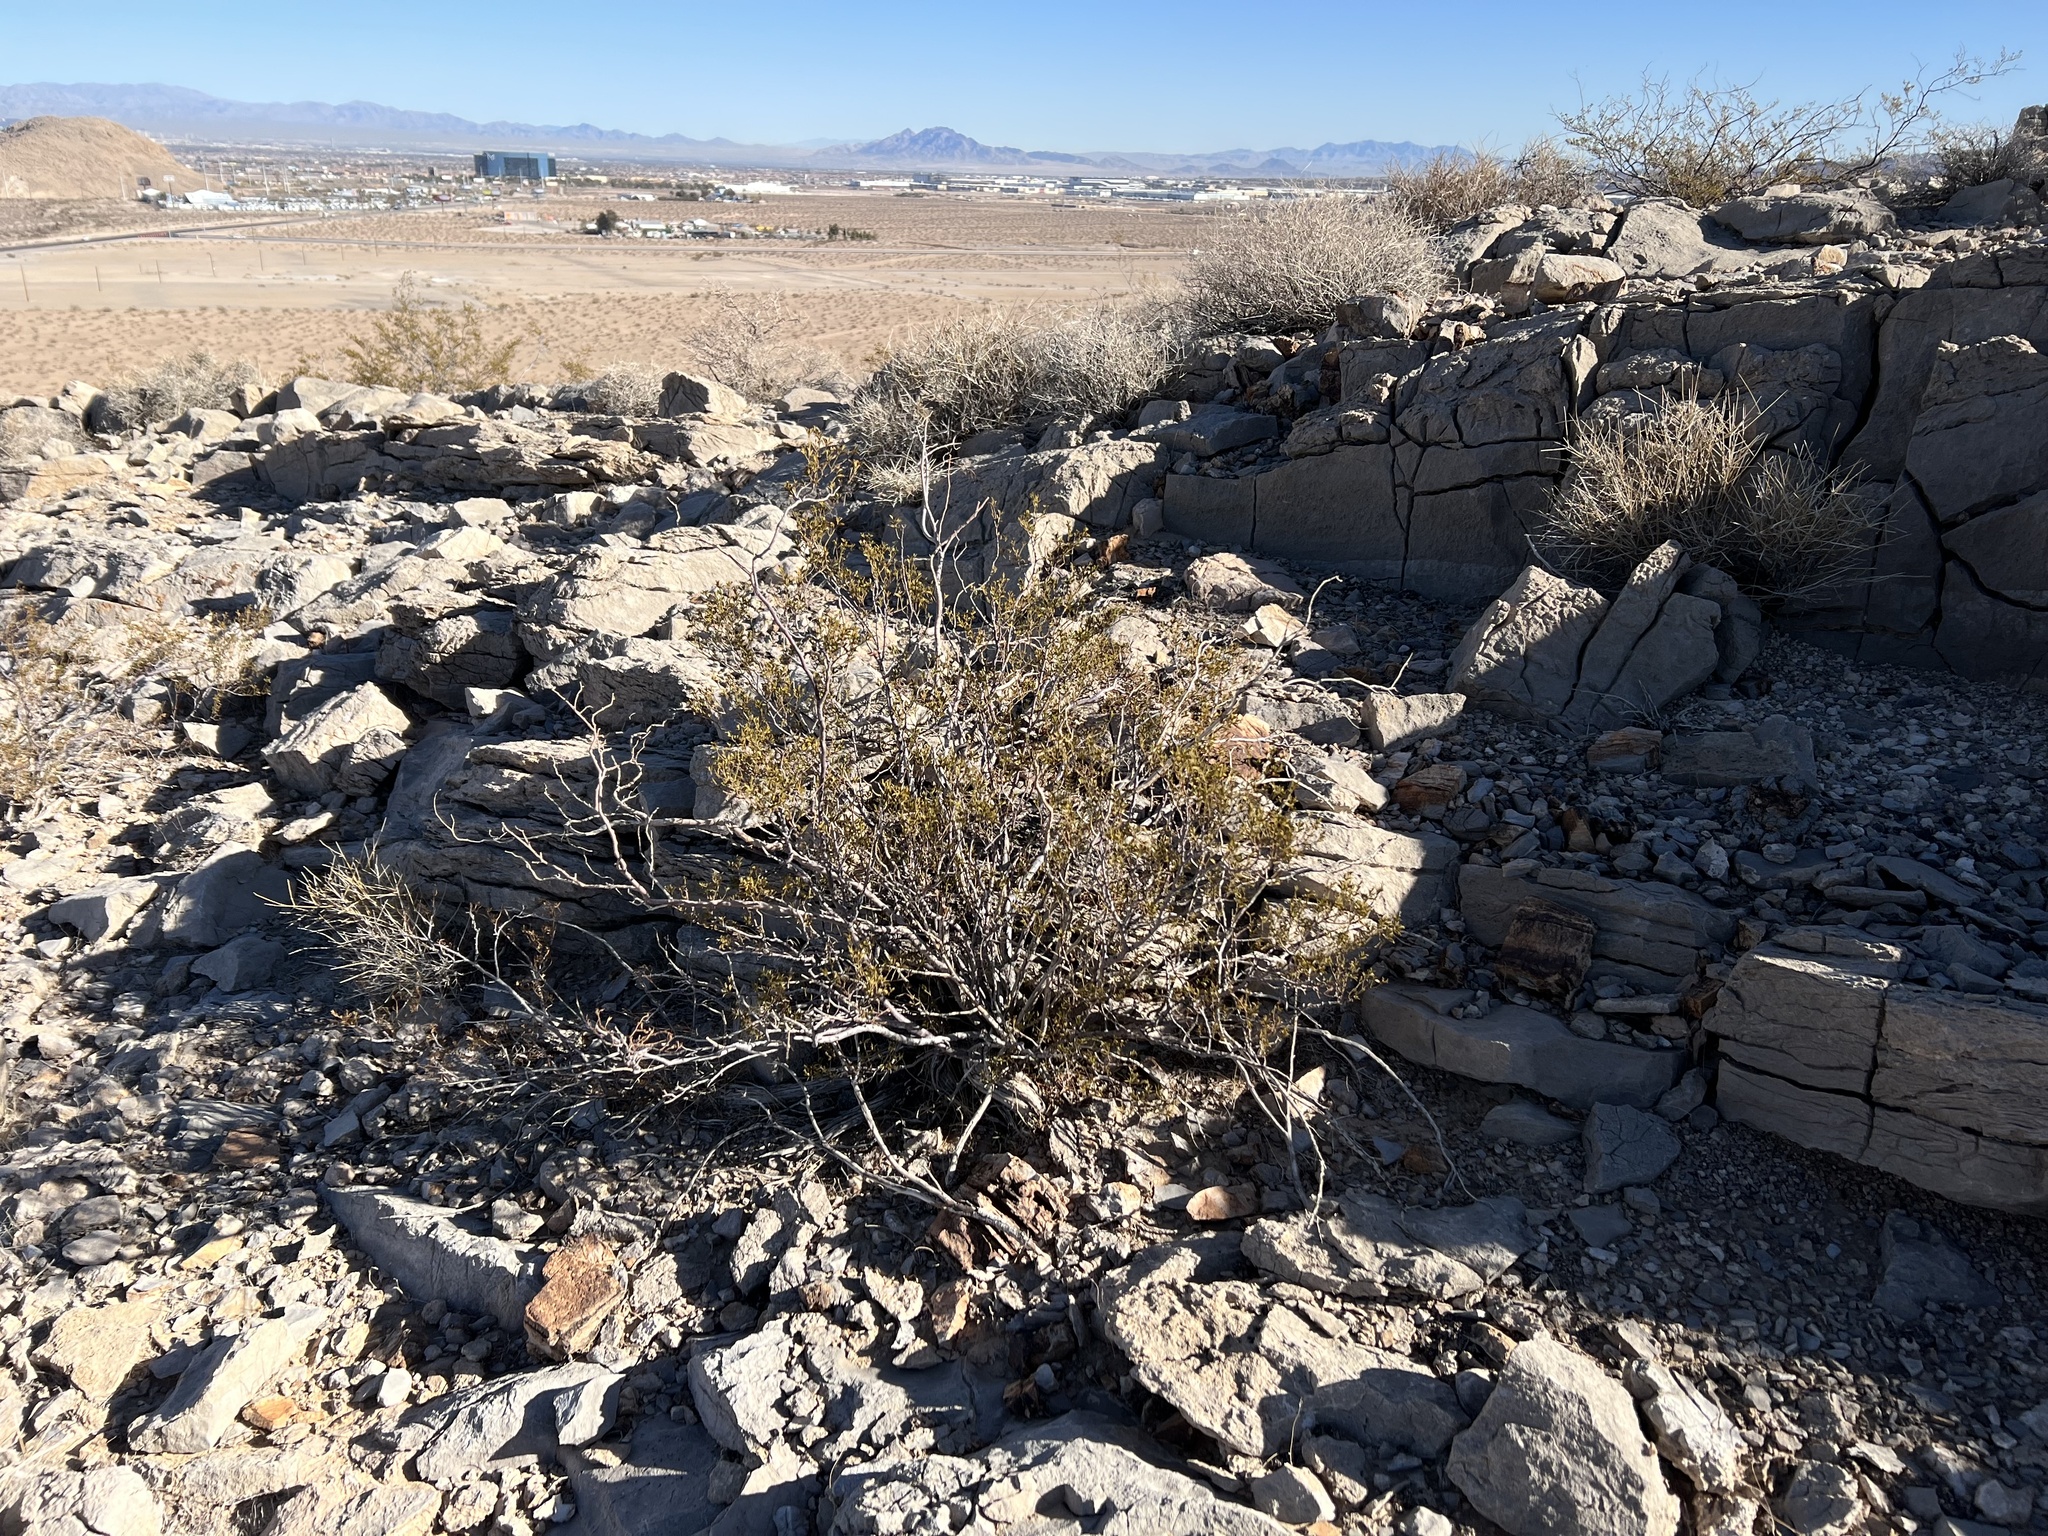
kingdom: Plantae
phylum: Tracheophyta
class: Magnoliopsida
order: Zygophyllales
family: Zygophyllaceae
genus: Larrea
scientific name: Larrea tridentata
